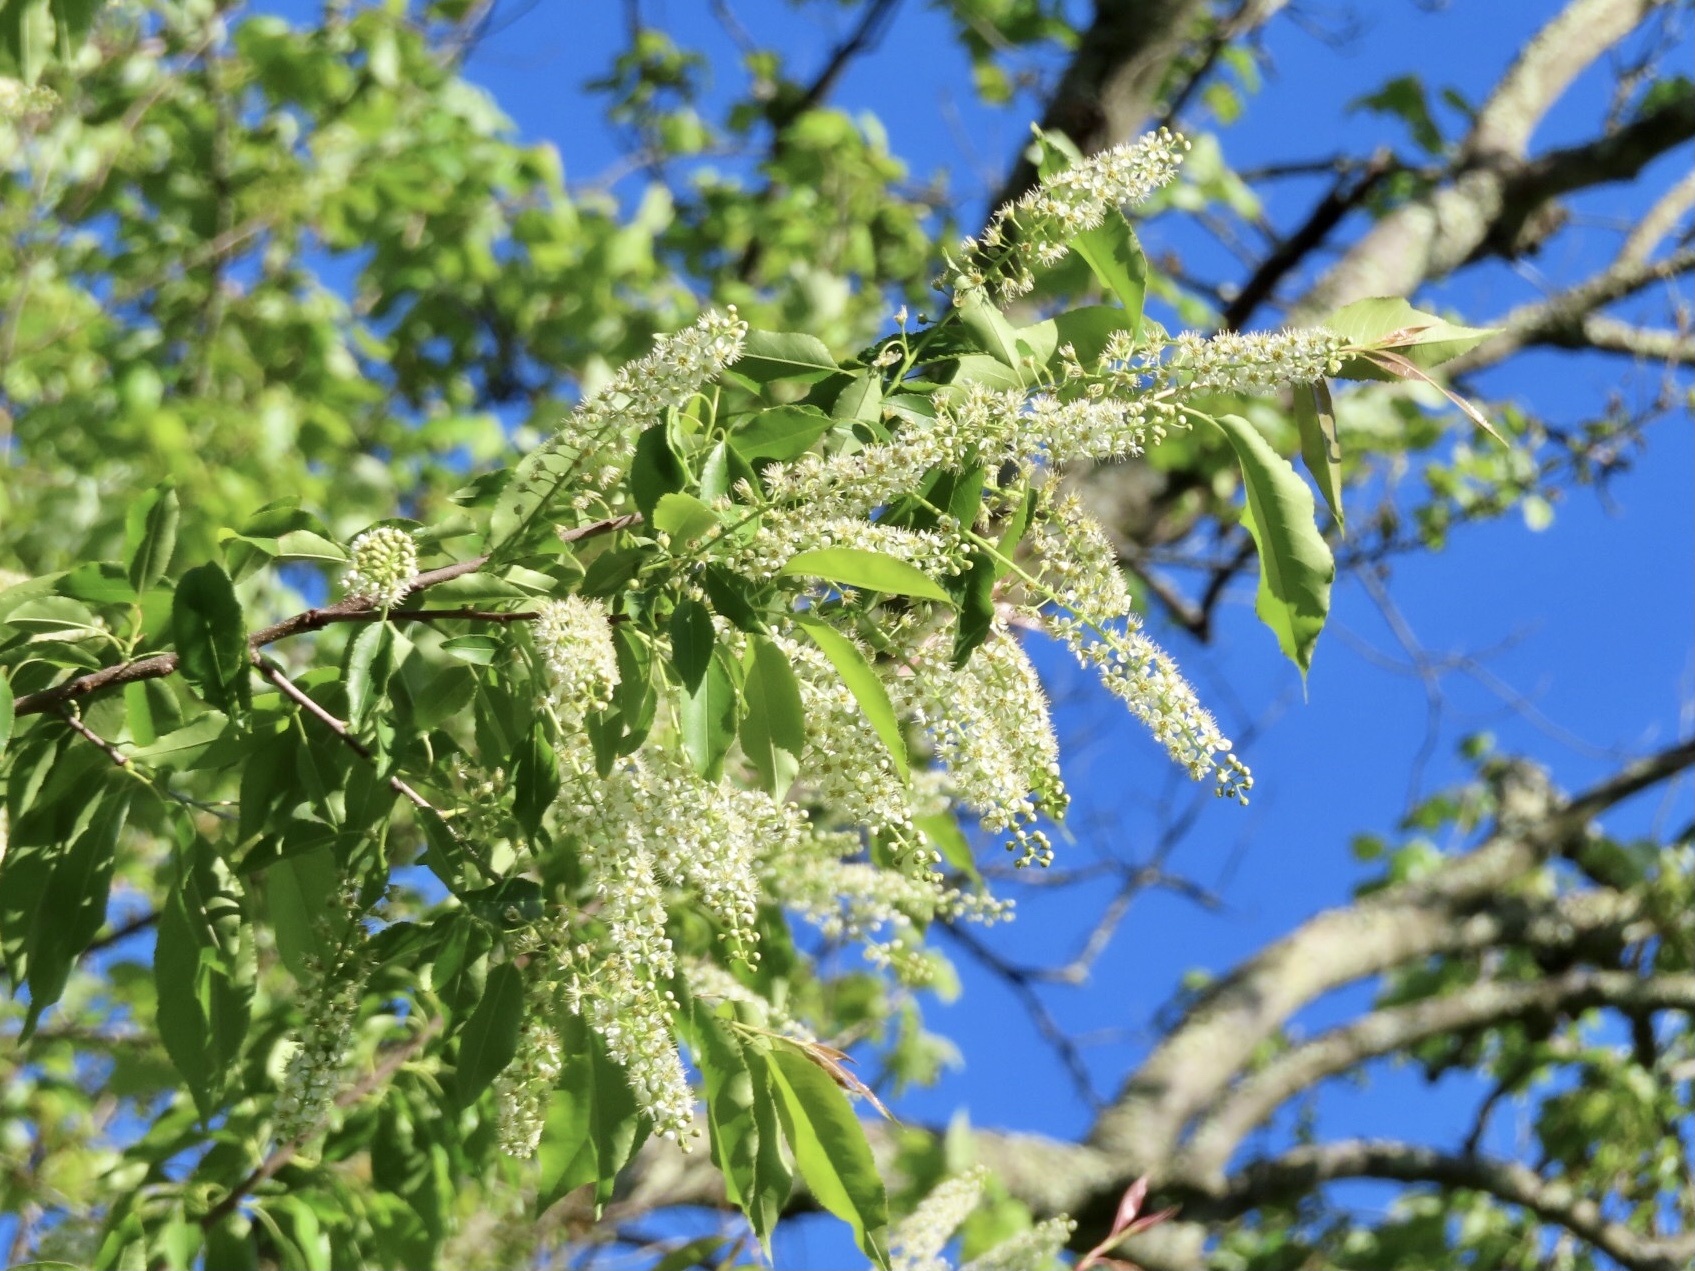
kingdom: Plantae
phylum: Tracheophyta
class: Magnoliopsida
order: Rosales
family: Rosaceae
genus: Prunus
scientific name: Prunus serotina
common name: Black cherry
